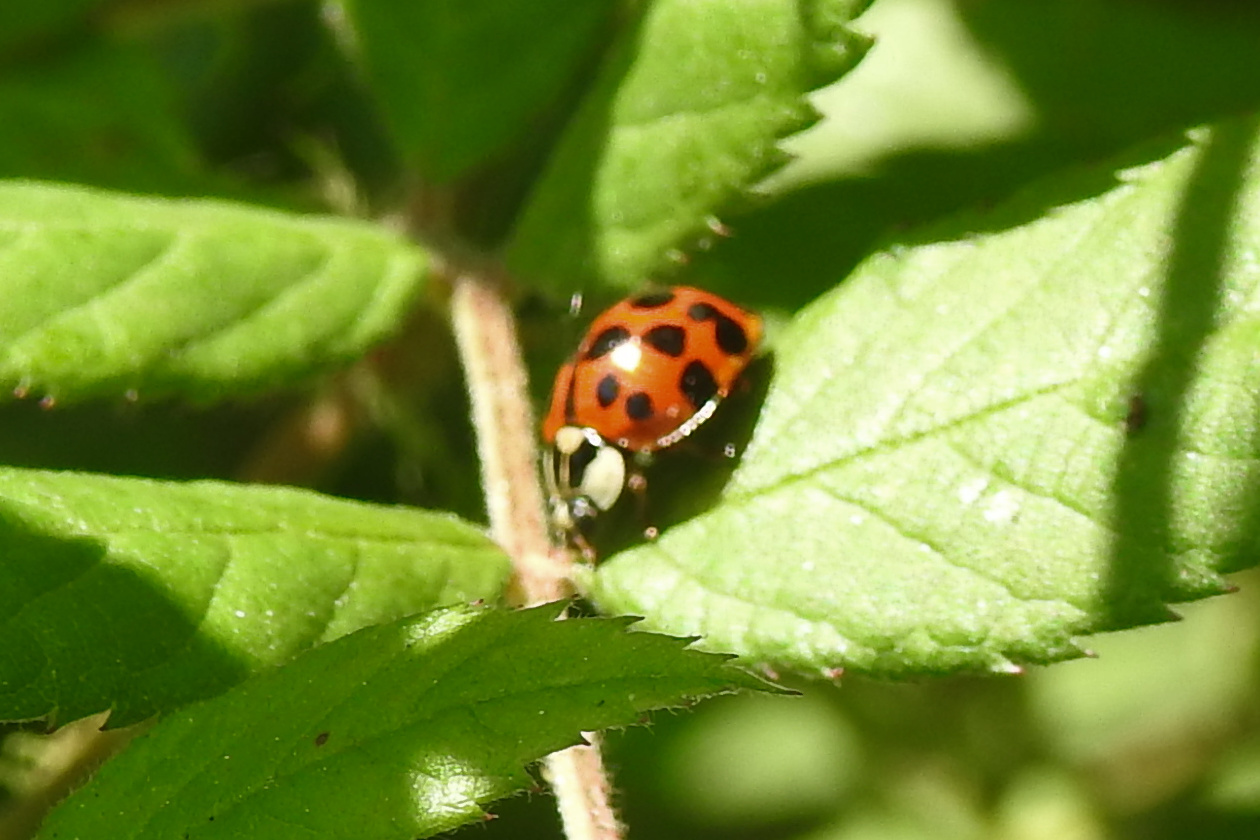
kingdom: Animalia
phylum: Arthropoda
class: Insecta
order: Coleoptera
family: Coccinellidae
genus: Harmonia
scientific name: Harmonia axyridis
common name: Harlequin ladybird
